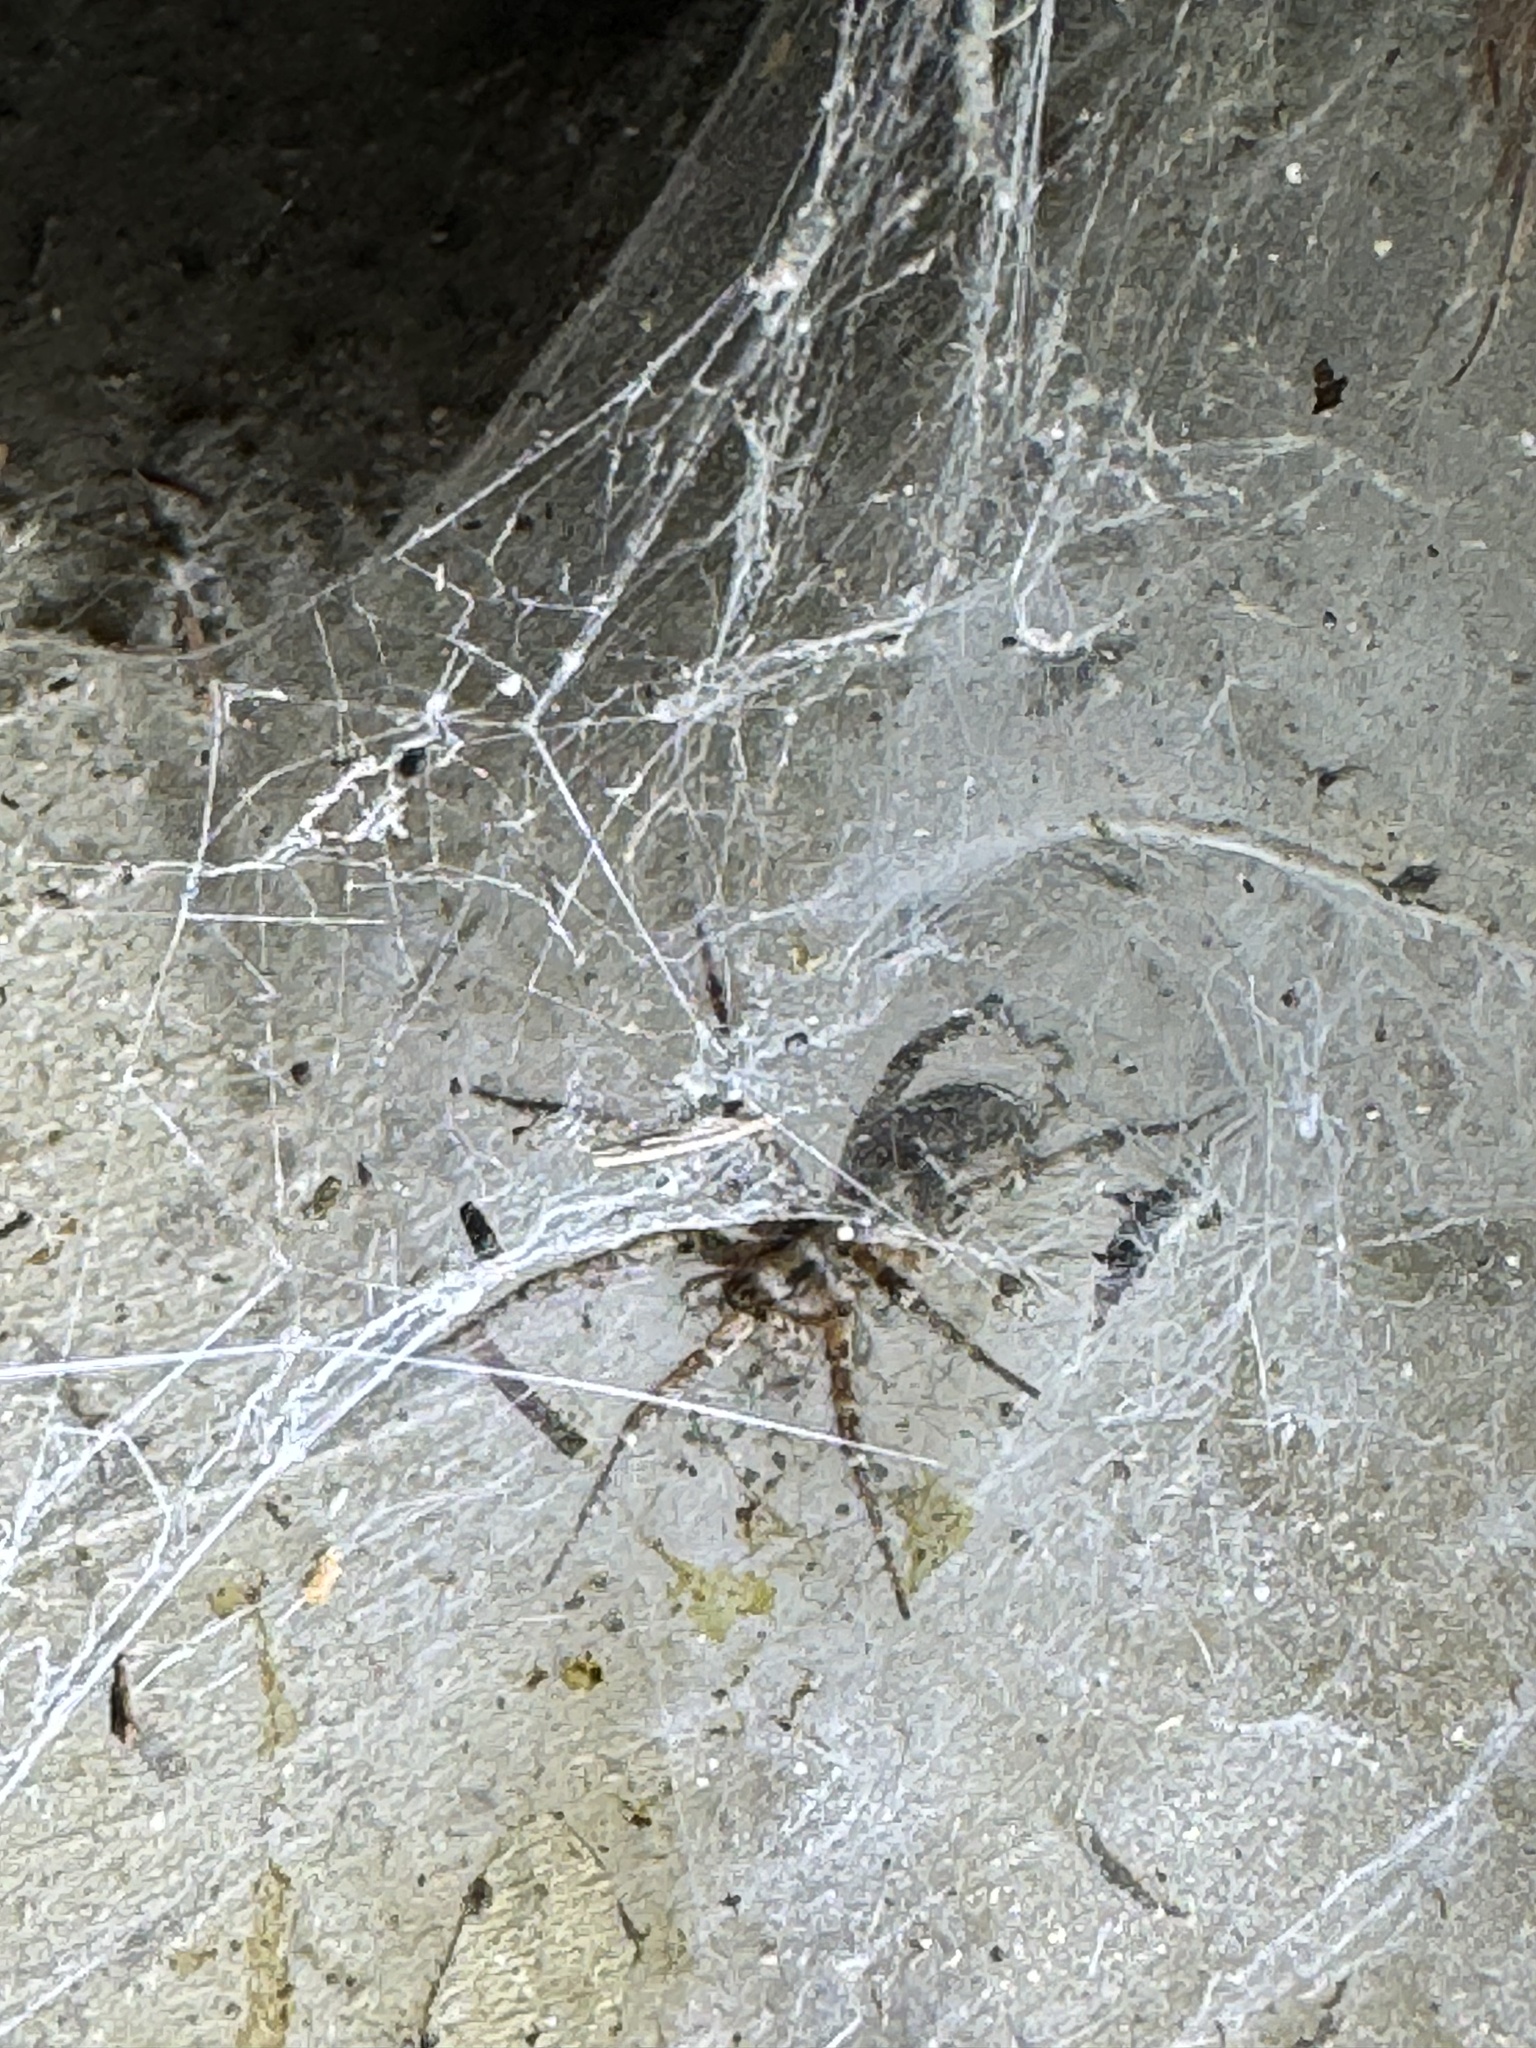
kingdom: Animalia
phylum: Arthropoda
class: Arachnida
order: Araneae
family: Agelenidae
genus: Barronopsis
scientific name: Barronopsis texana
